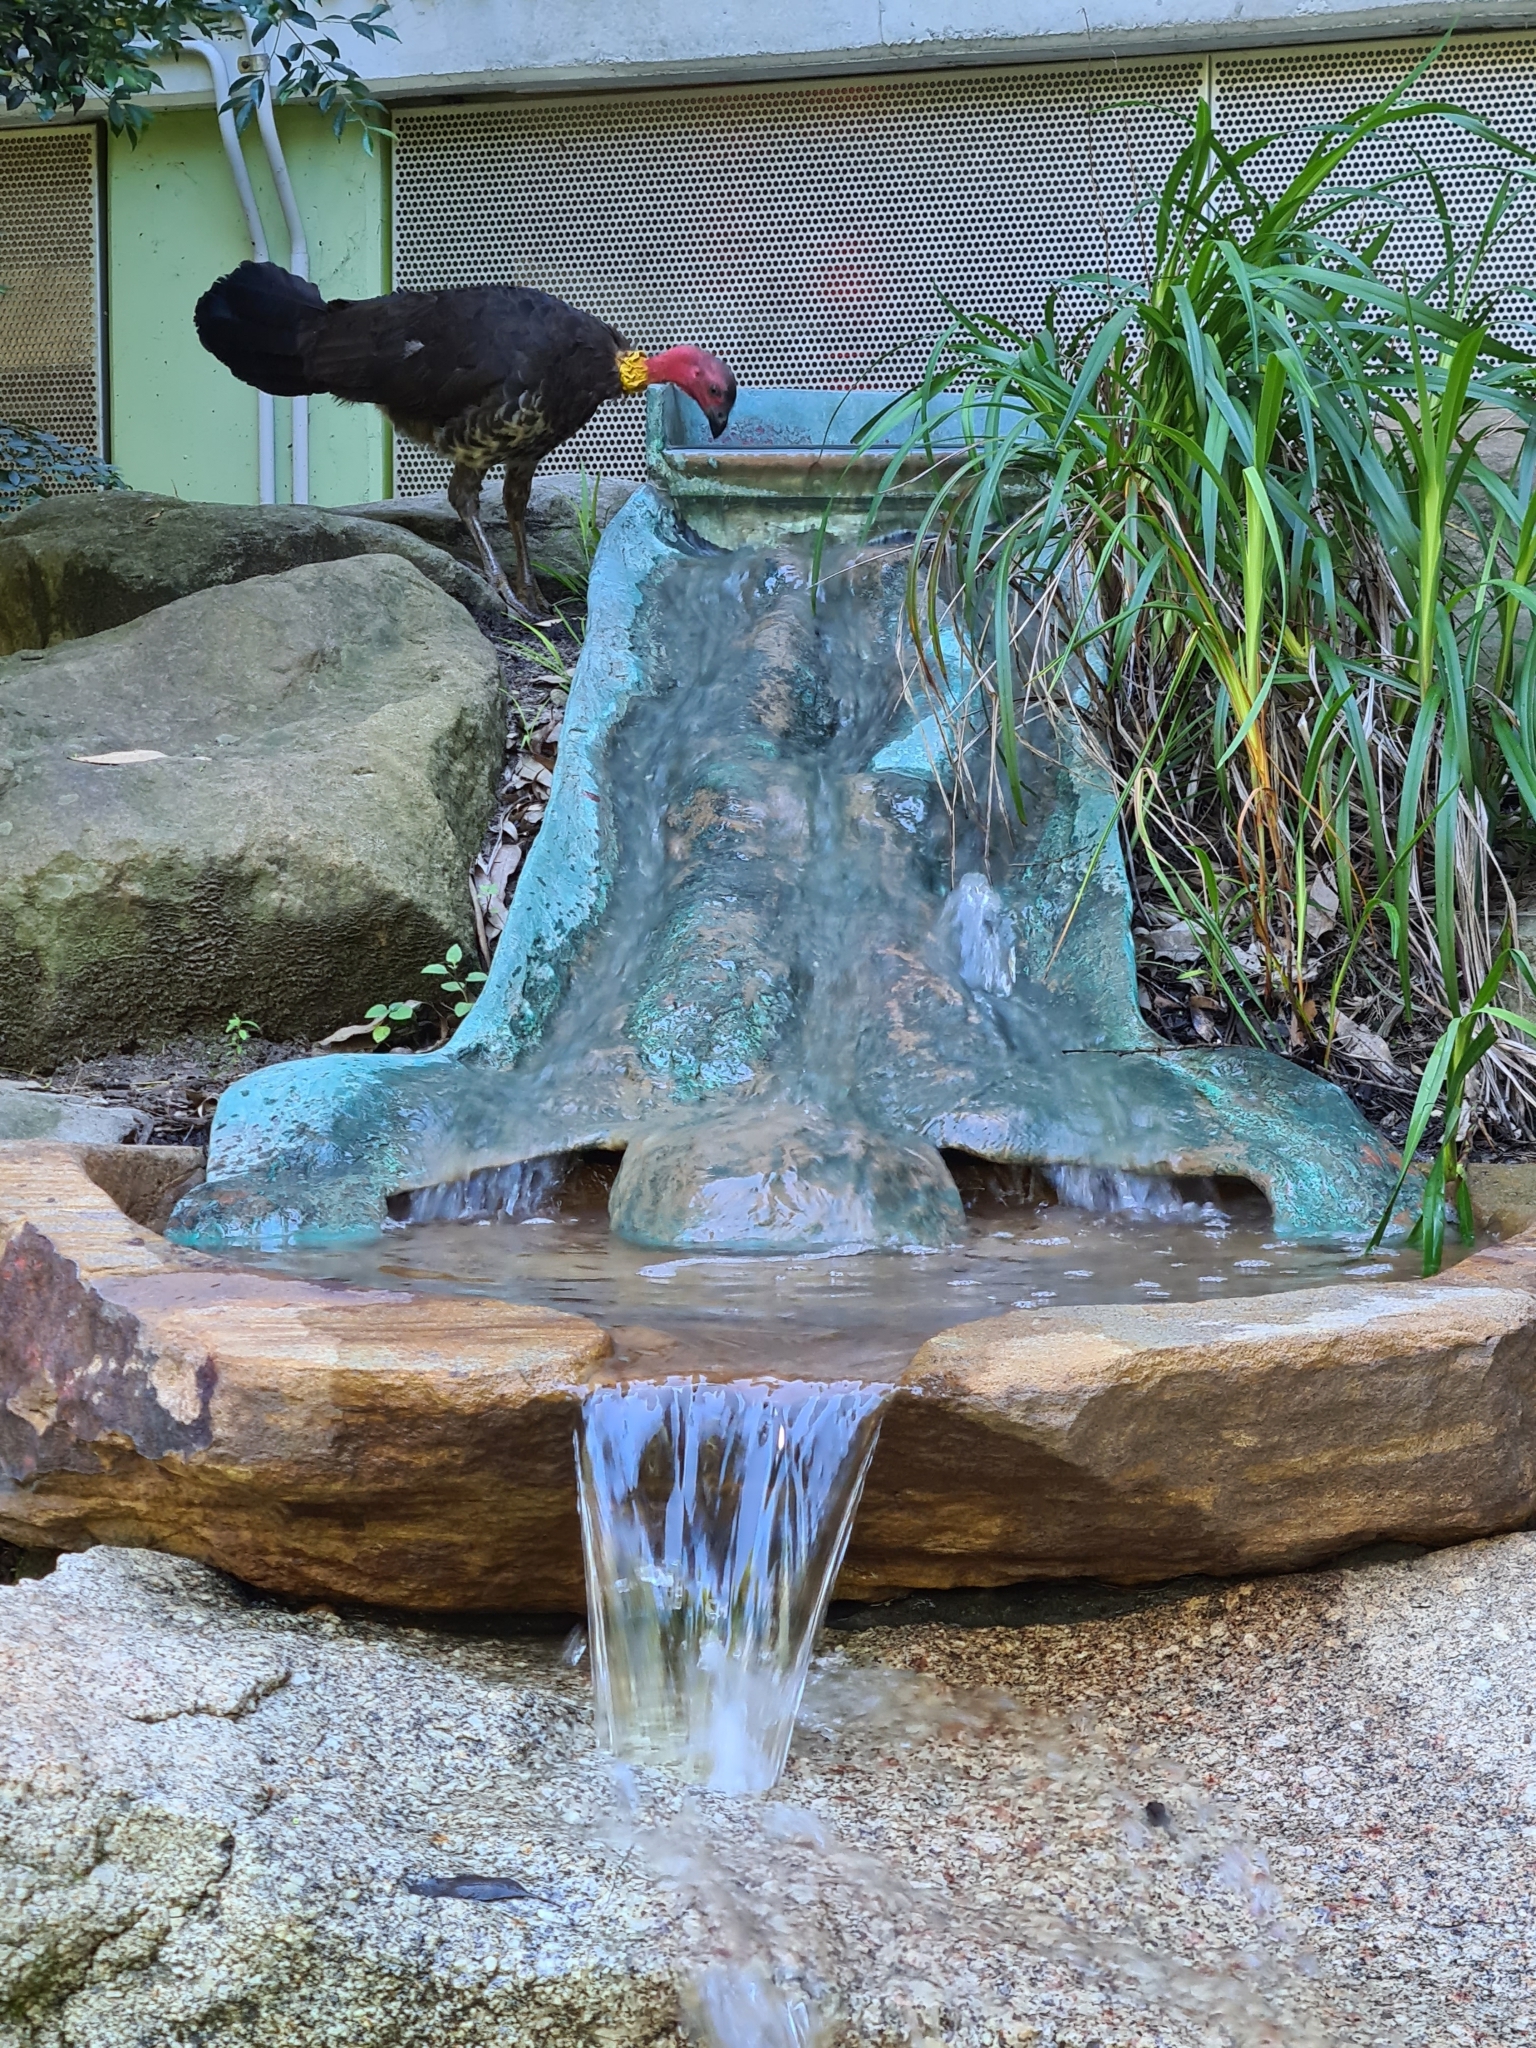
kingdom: Animalia
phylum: Chordata
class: Aves
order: Galliformes
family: Megapodiidae
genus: Alectura
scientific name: Alectura lathami
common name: Australian brushturkey
